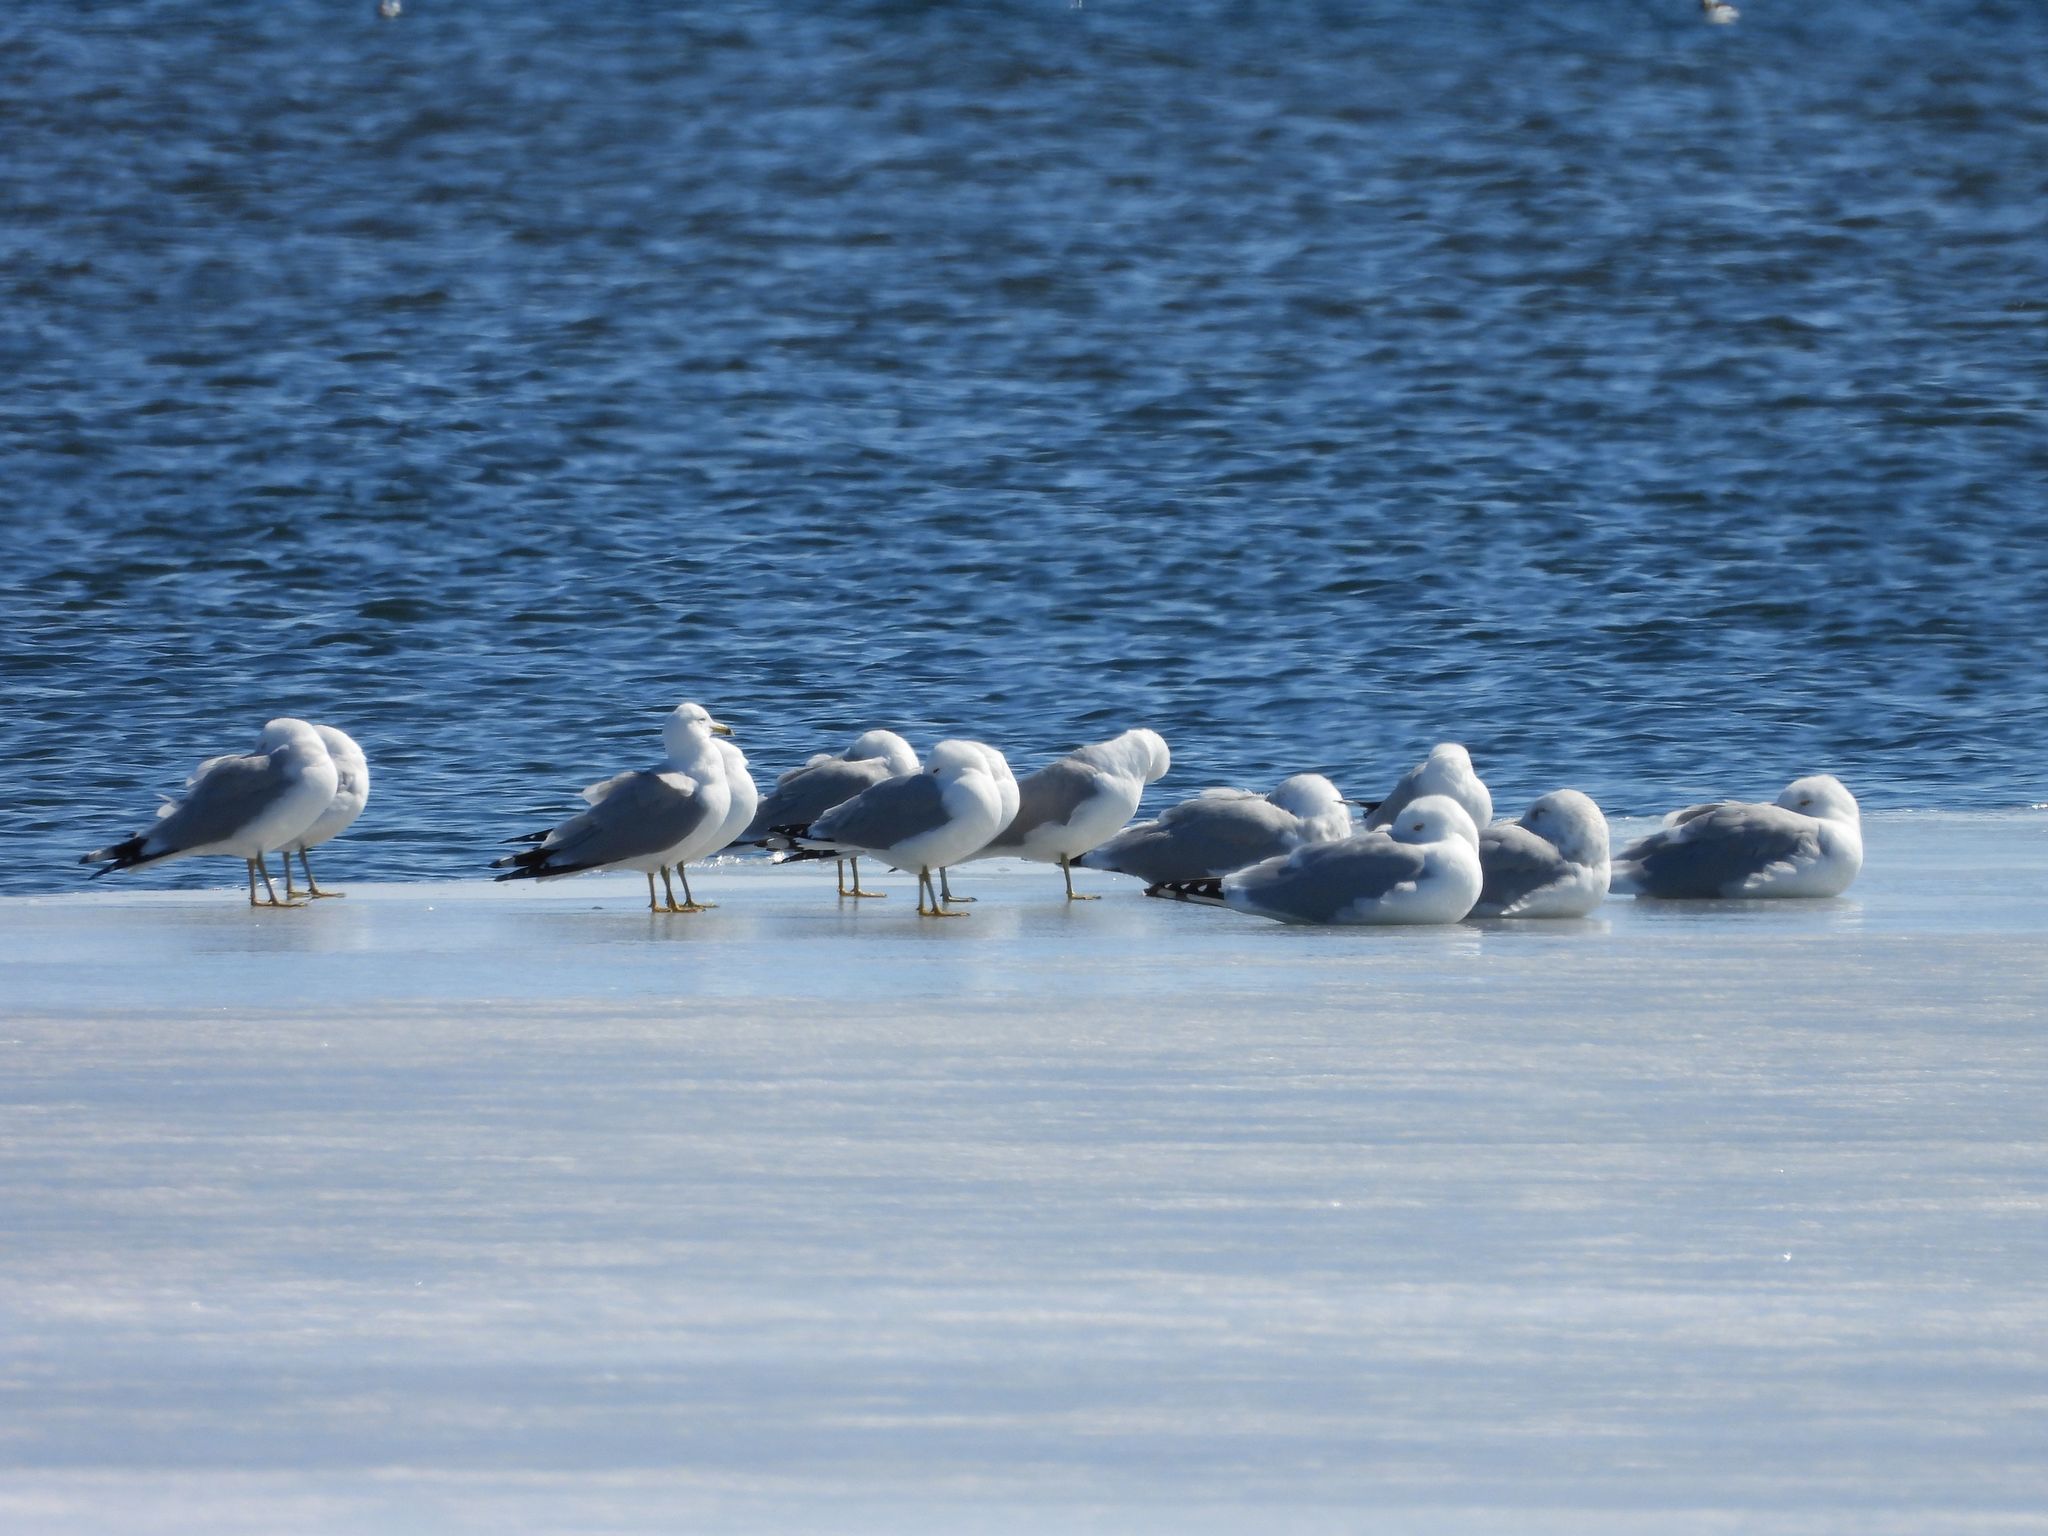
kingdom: Animalia
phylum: Chordata
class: Aves
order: Charadriiformes
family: Laridae
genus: Larus
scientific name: Larus delawarensis
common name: Ring-billed gull
